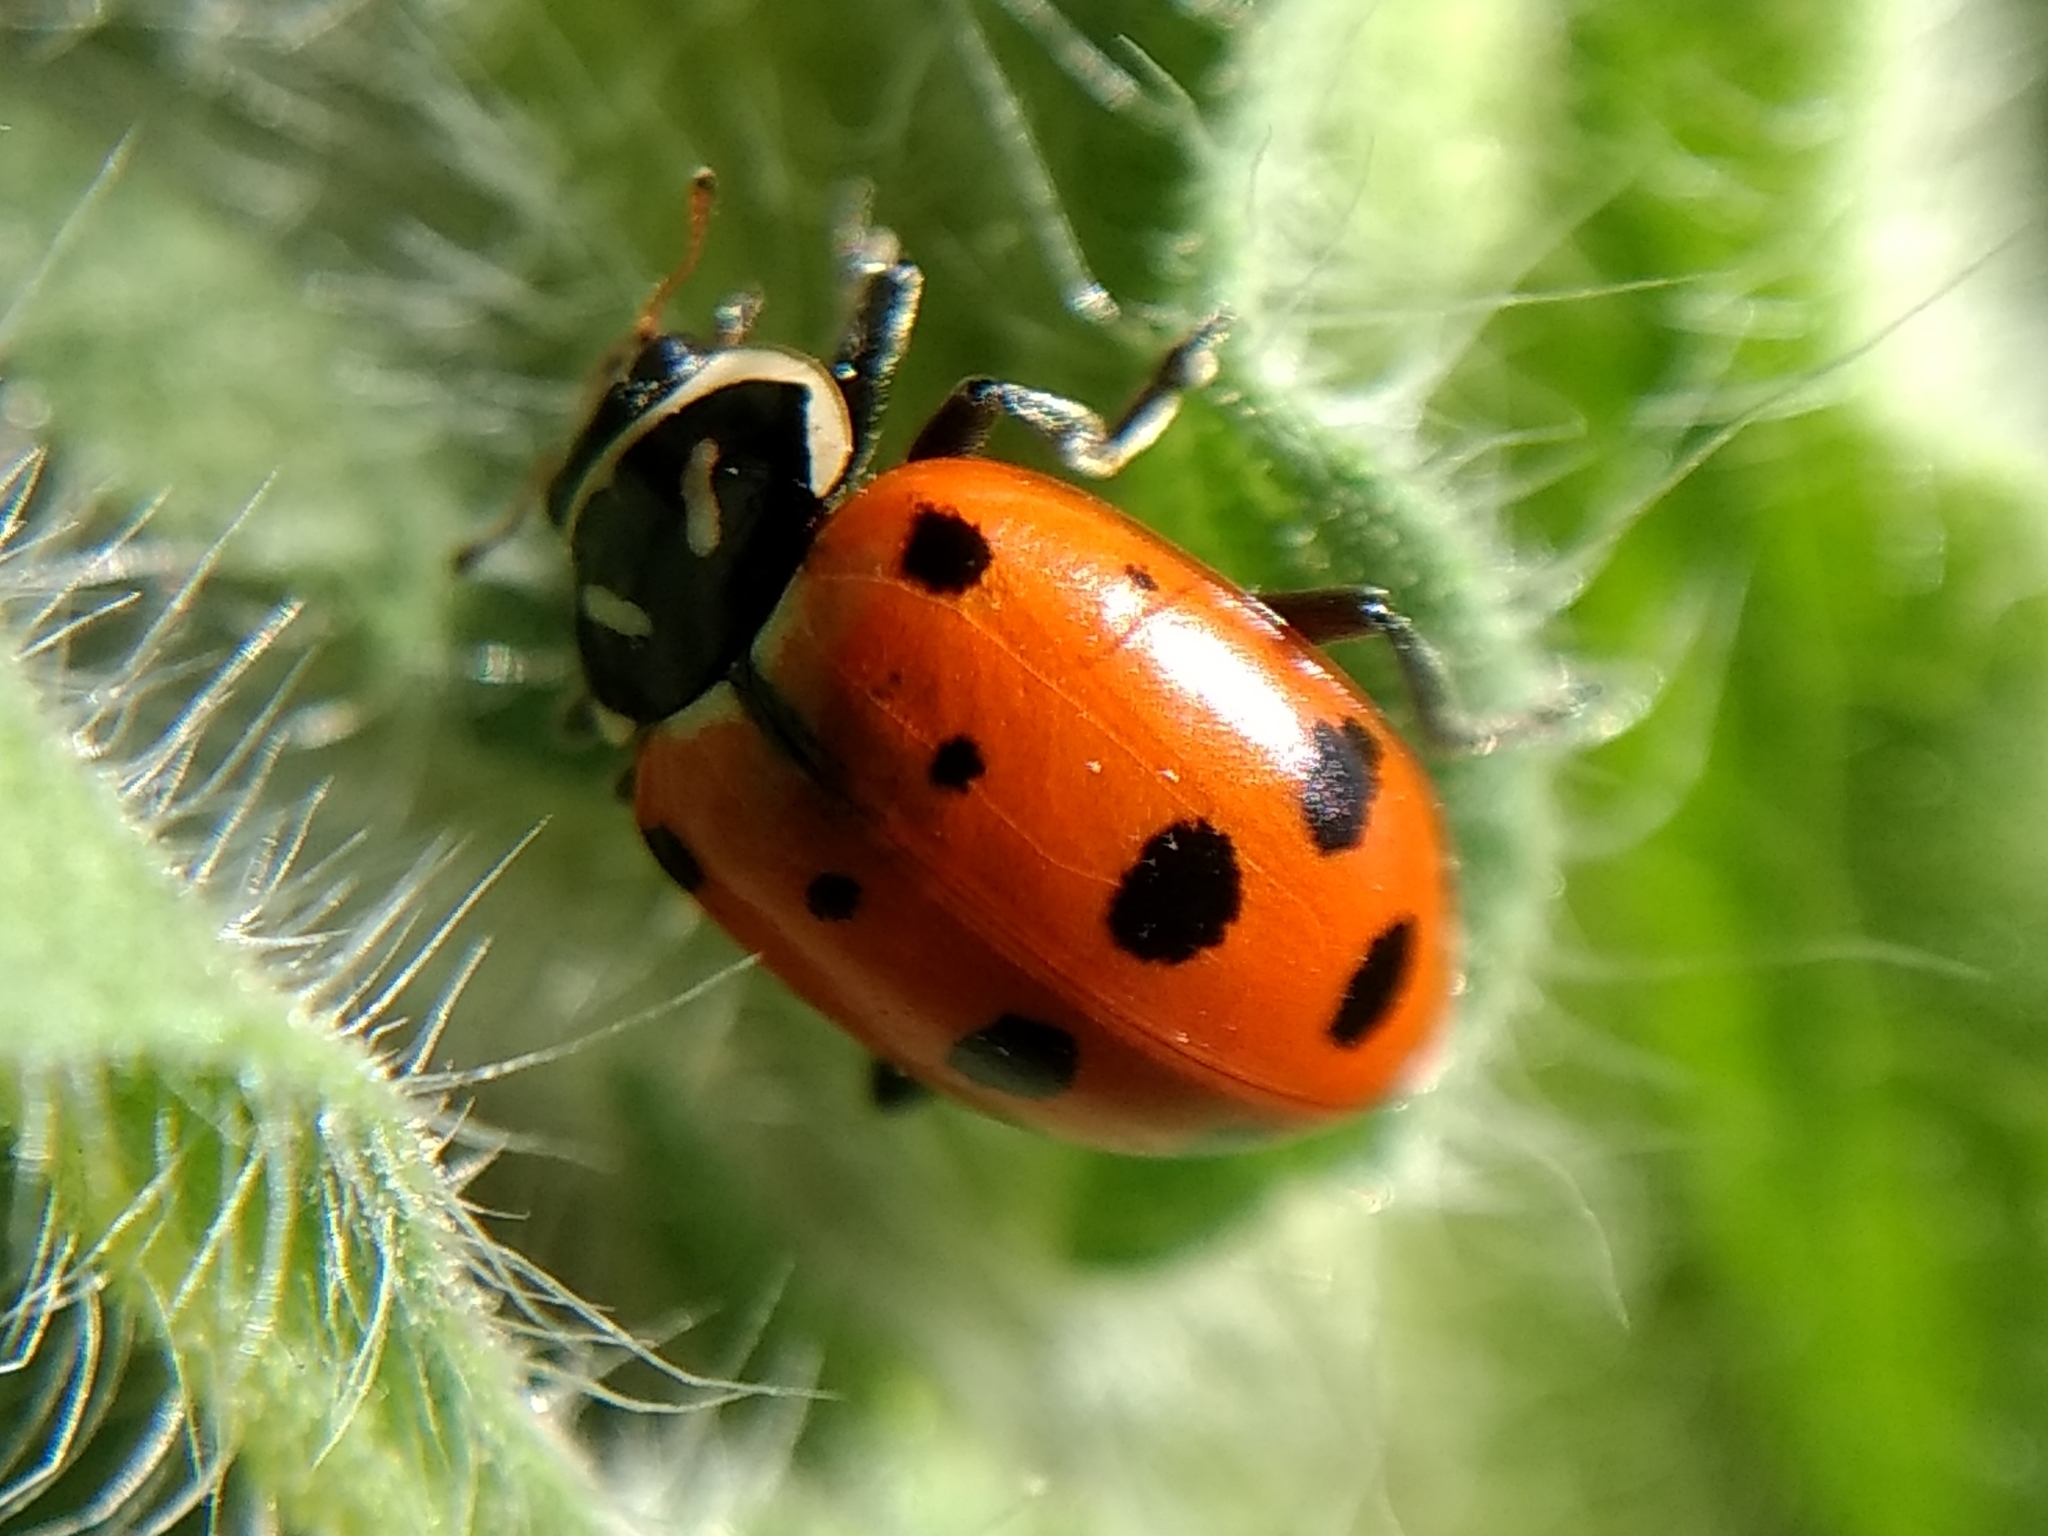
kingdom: Animalia
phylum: Arthropoda
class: Insecta
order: Coleoptera
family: Coccinellidae
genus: Hippodamia
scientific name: Hippodamia convergens
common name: Convergent lady beetle
